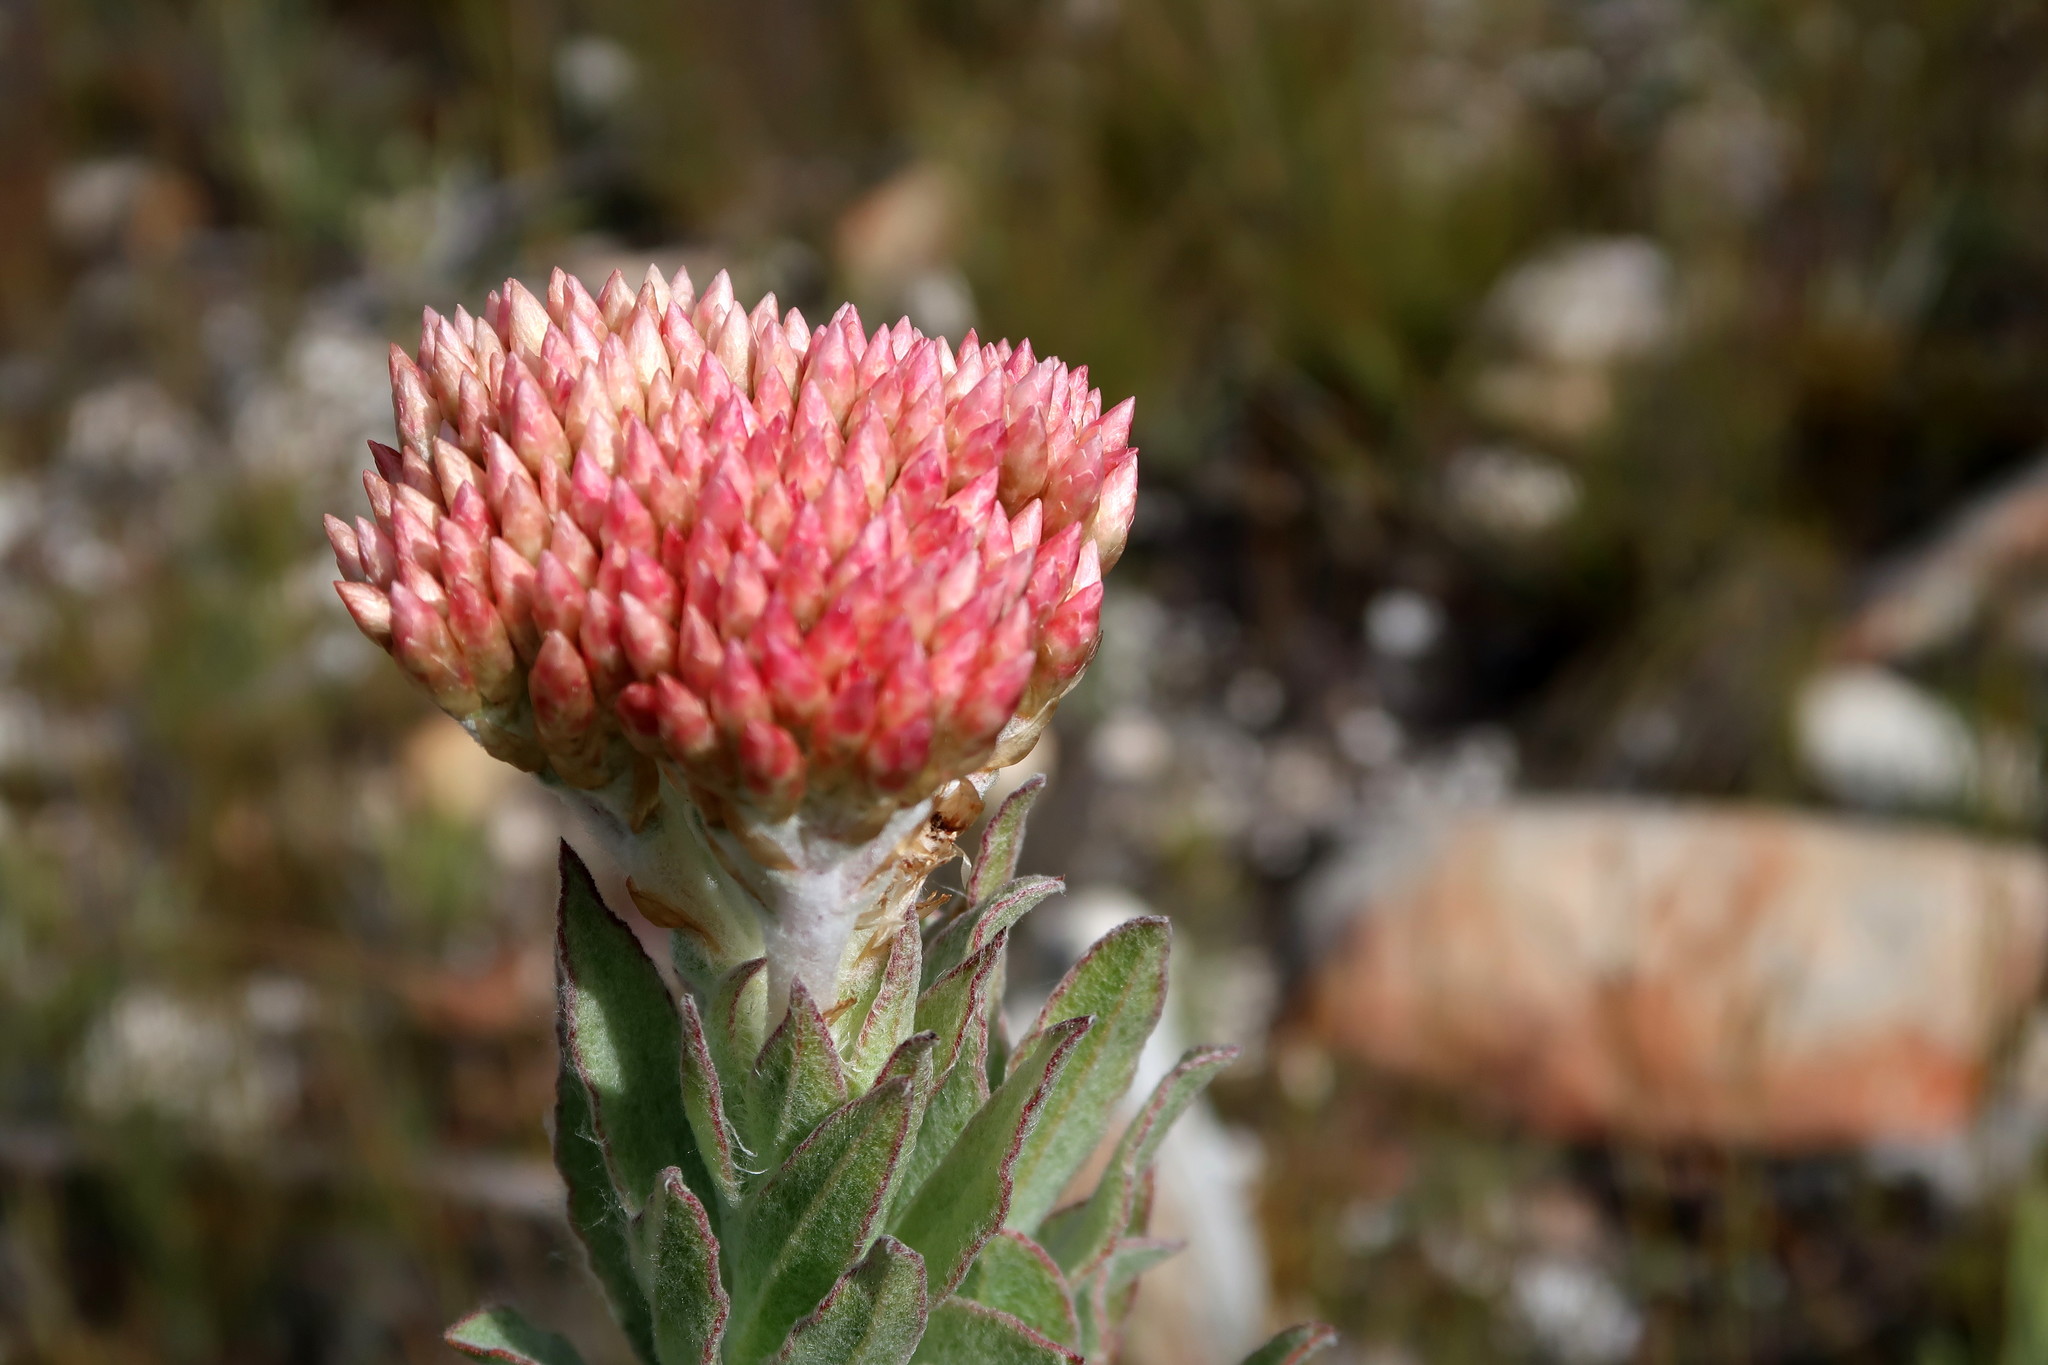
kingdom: Plantae
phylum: Tracheophyta
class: Magnoliopsida
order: Asterales
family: Asteraceae
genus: Syncarpha
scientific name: Syncarpha milleflora
